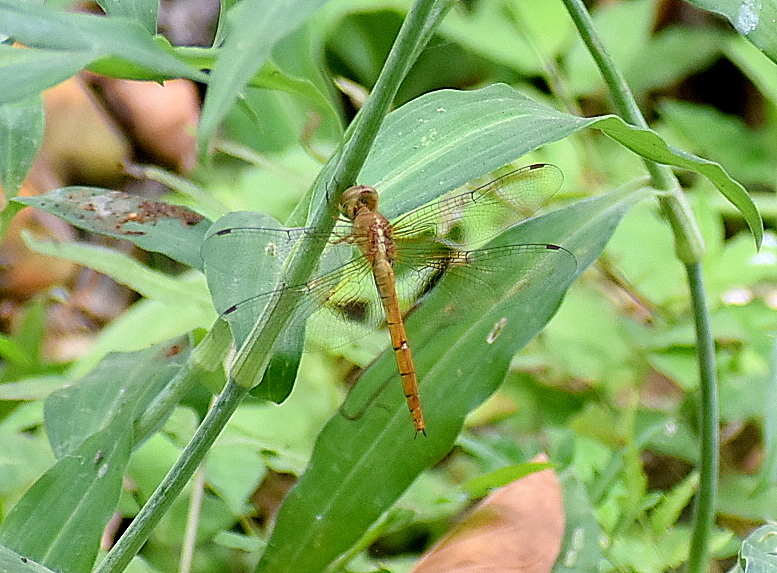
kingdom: Animalia
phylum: Arthropoda
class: Insecta
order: Odonata
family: Libellulidae
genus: Tholymis
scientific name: Tholymis tillarga
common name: Coral-tailed cloud wing
